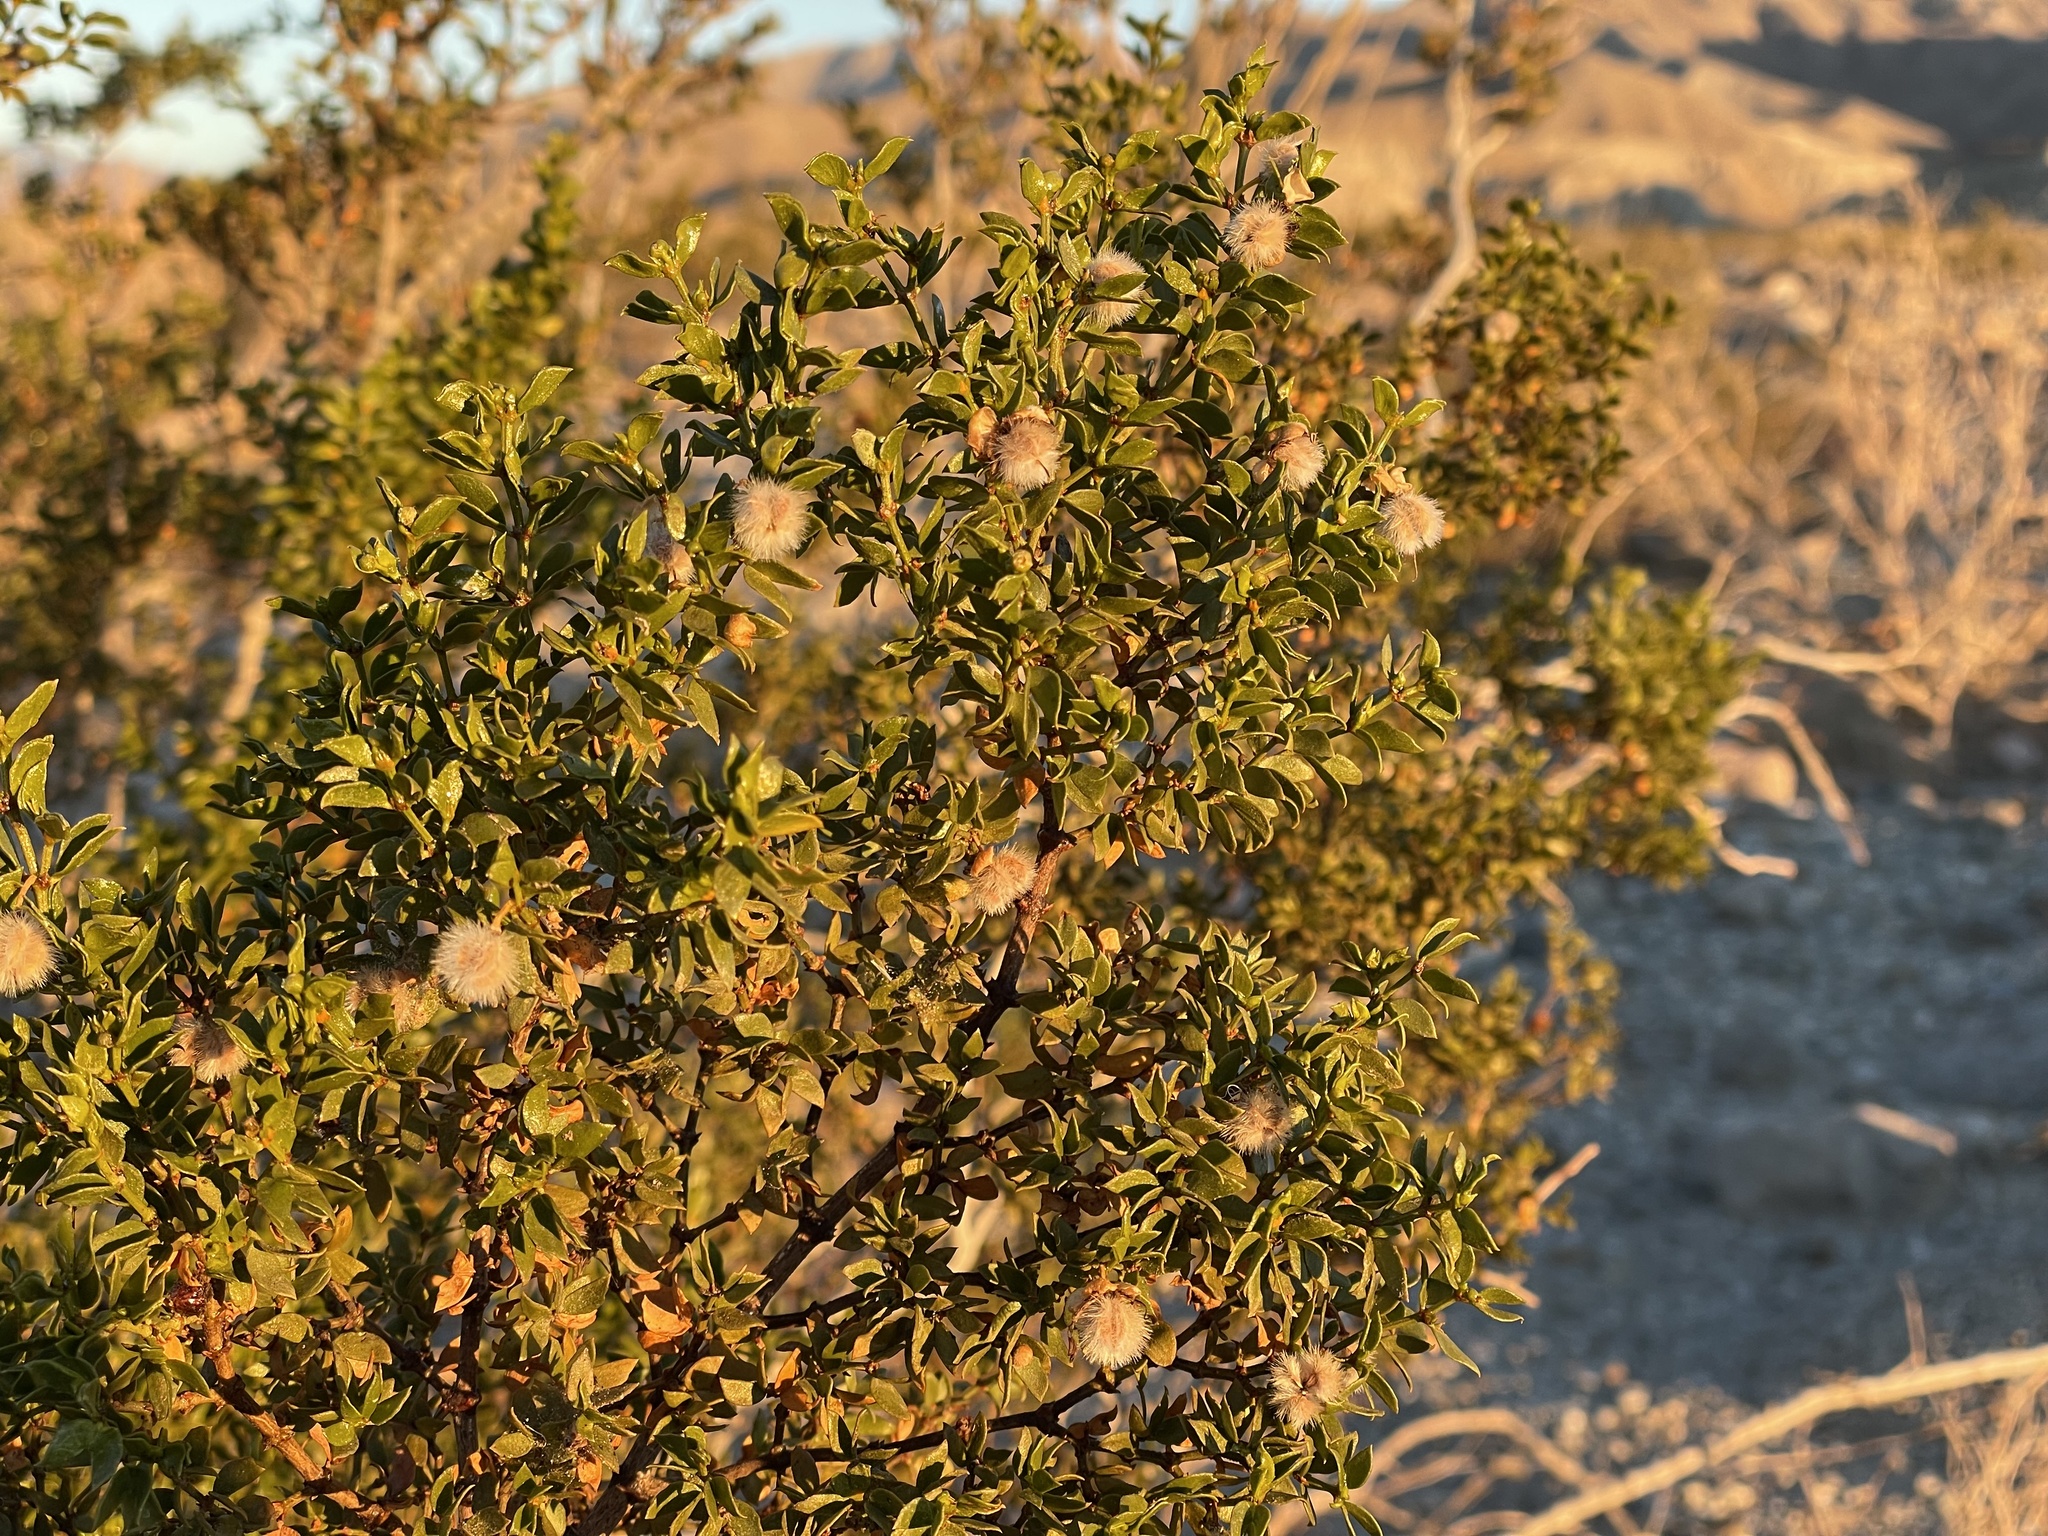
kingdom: Plantae
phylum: Tracheophyta
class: Magnoliopsida
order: Zygophyllales
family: Zygophyllaceae
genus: Larrea
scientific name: Larrea tridentata
